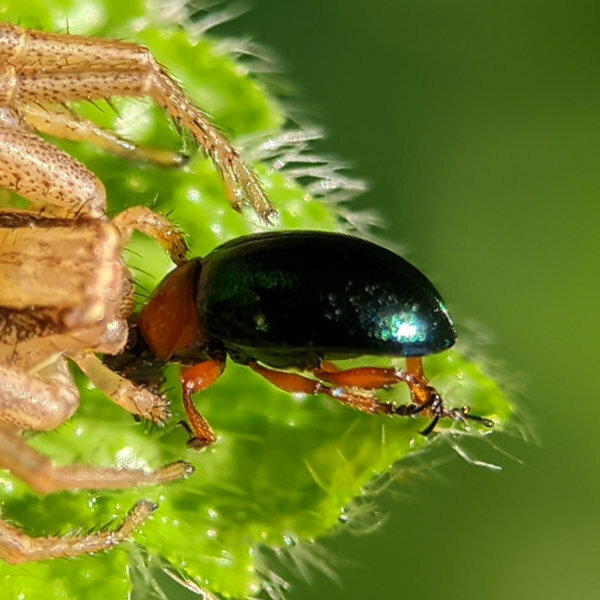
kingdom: Animalia
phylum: Arthropoda
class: Insecta
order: Coleoptera
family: Chrysomelidae
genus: Gastrophysa
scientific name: Gastrophysa polygoni
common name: Knotweed leaf beetle
